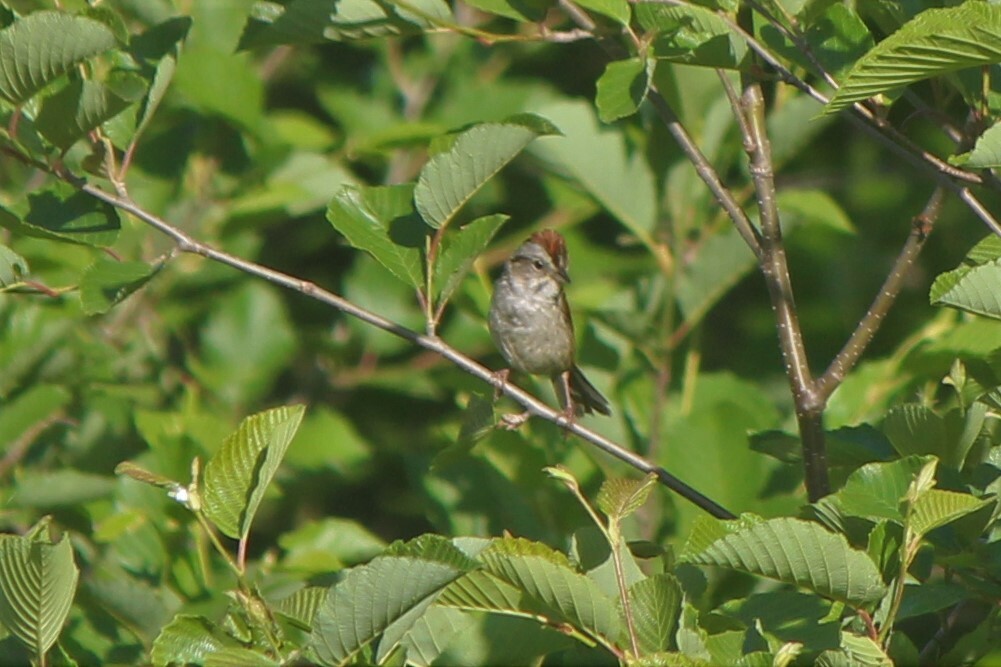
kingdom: Animalia
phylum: Chordata
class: Aves
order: Passeriformes
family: Passerellidae
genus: Melospiza
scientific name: Melospiza georgiana
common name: Swamp sparrow
